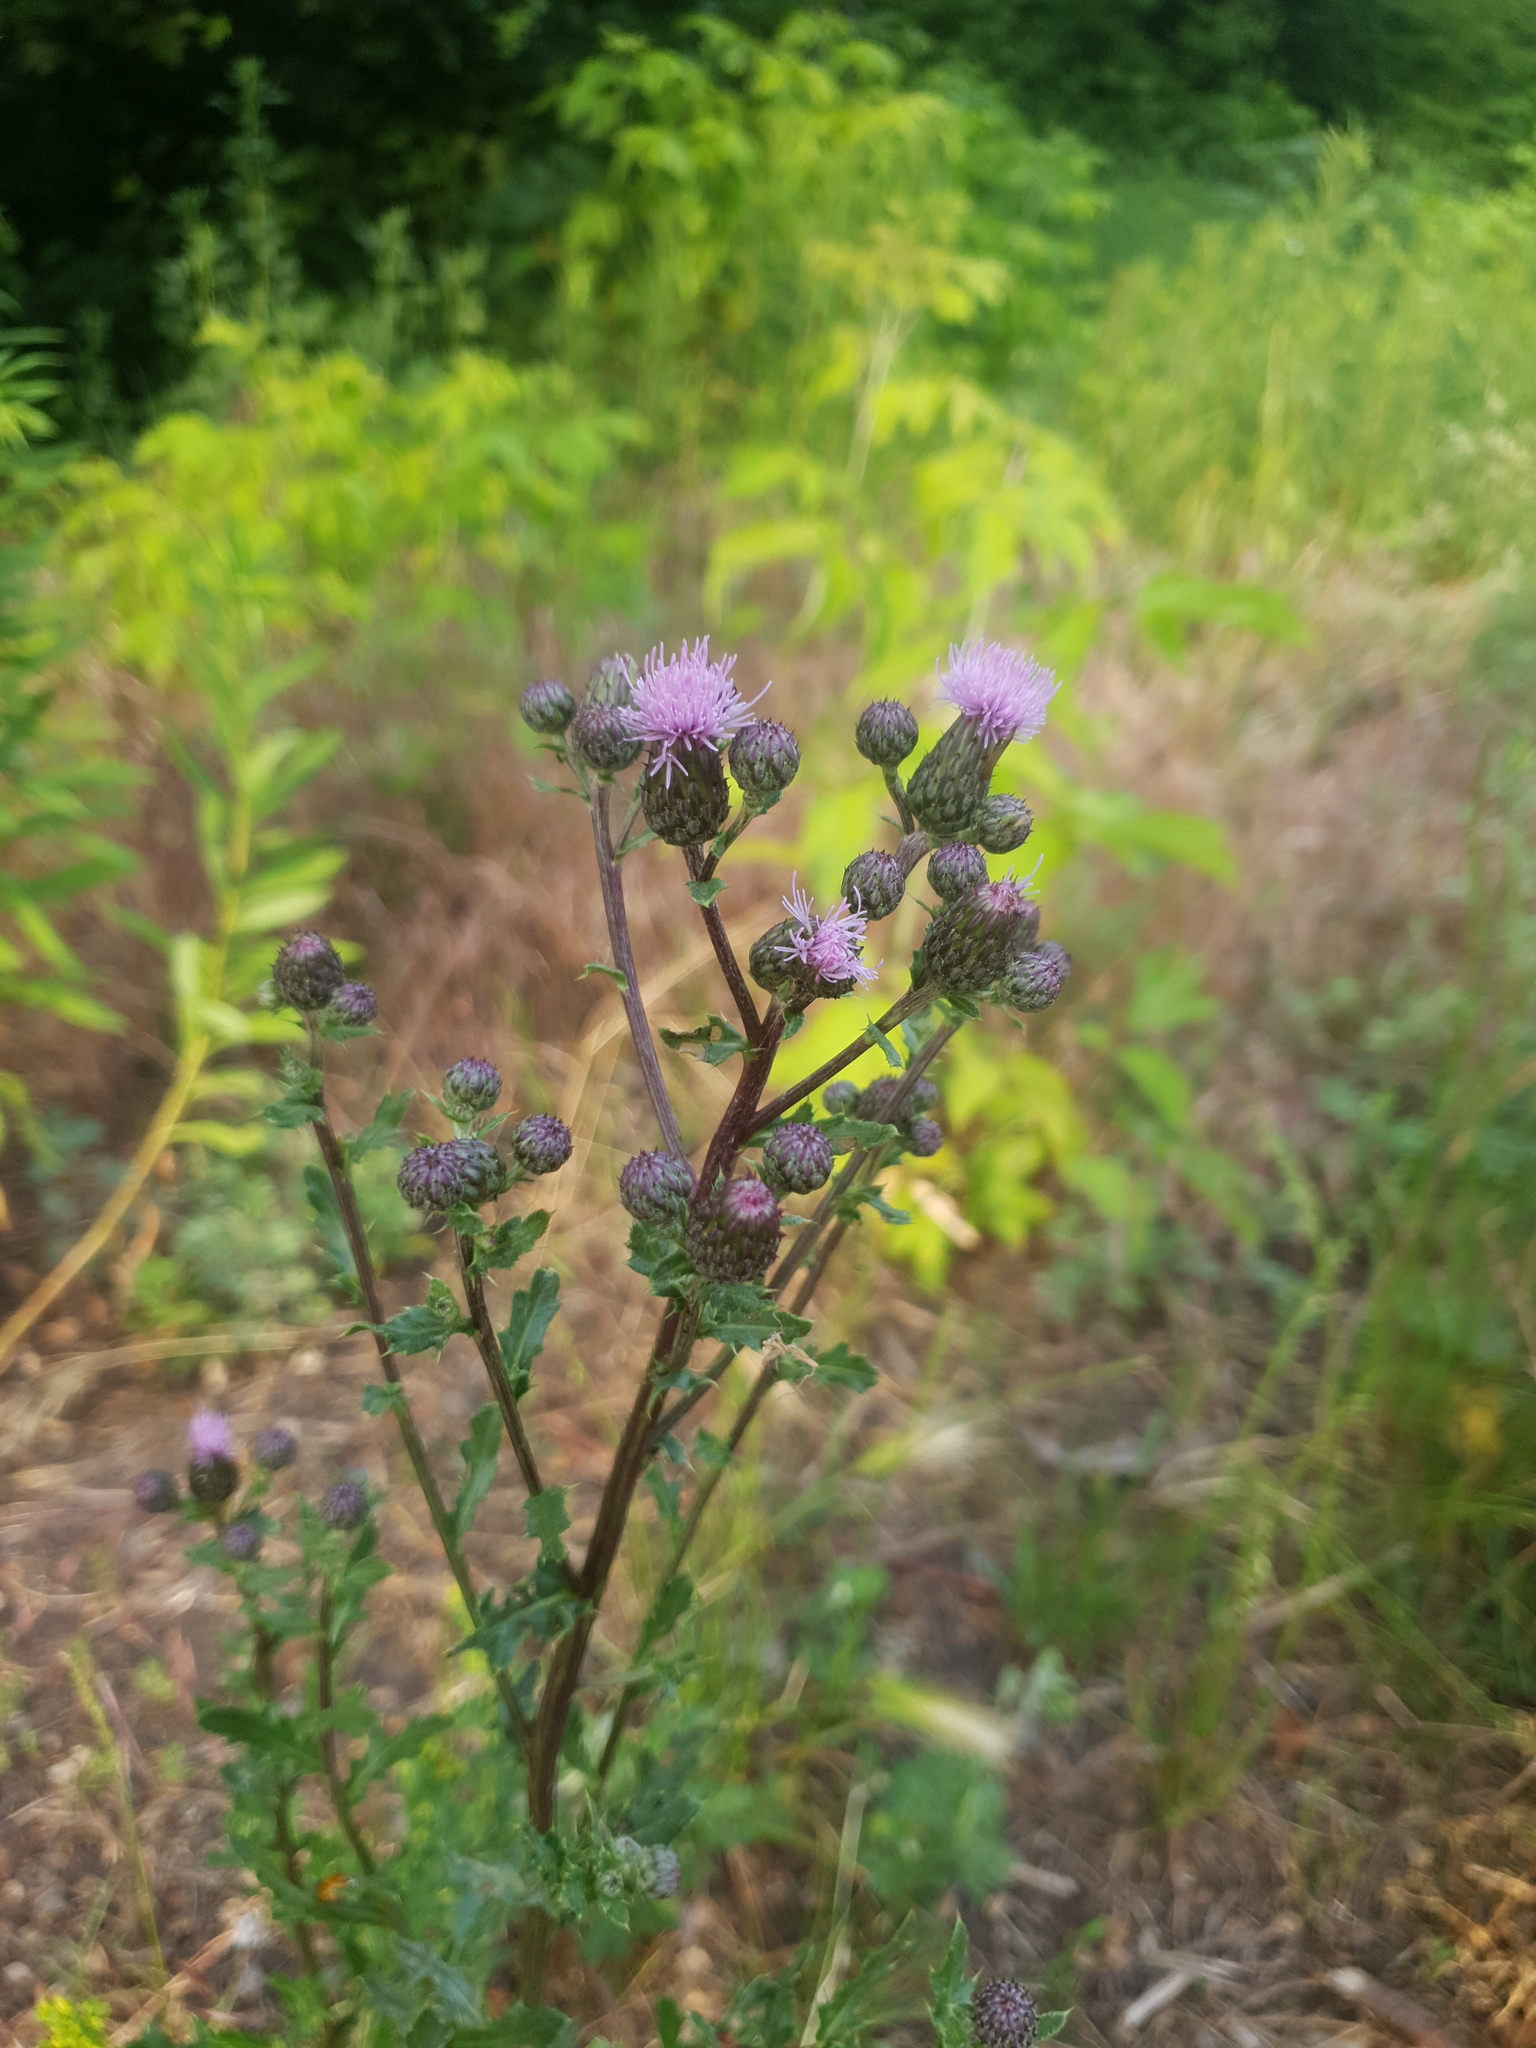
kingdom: Plantae
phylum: Tracheophyta
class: Magnoliopsida
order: Asterales
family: Asteraceae
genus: Cirsium
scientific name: Cirsium arvense
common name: Creeping thistle
